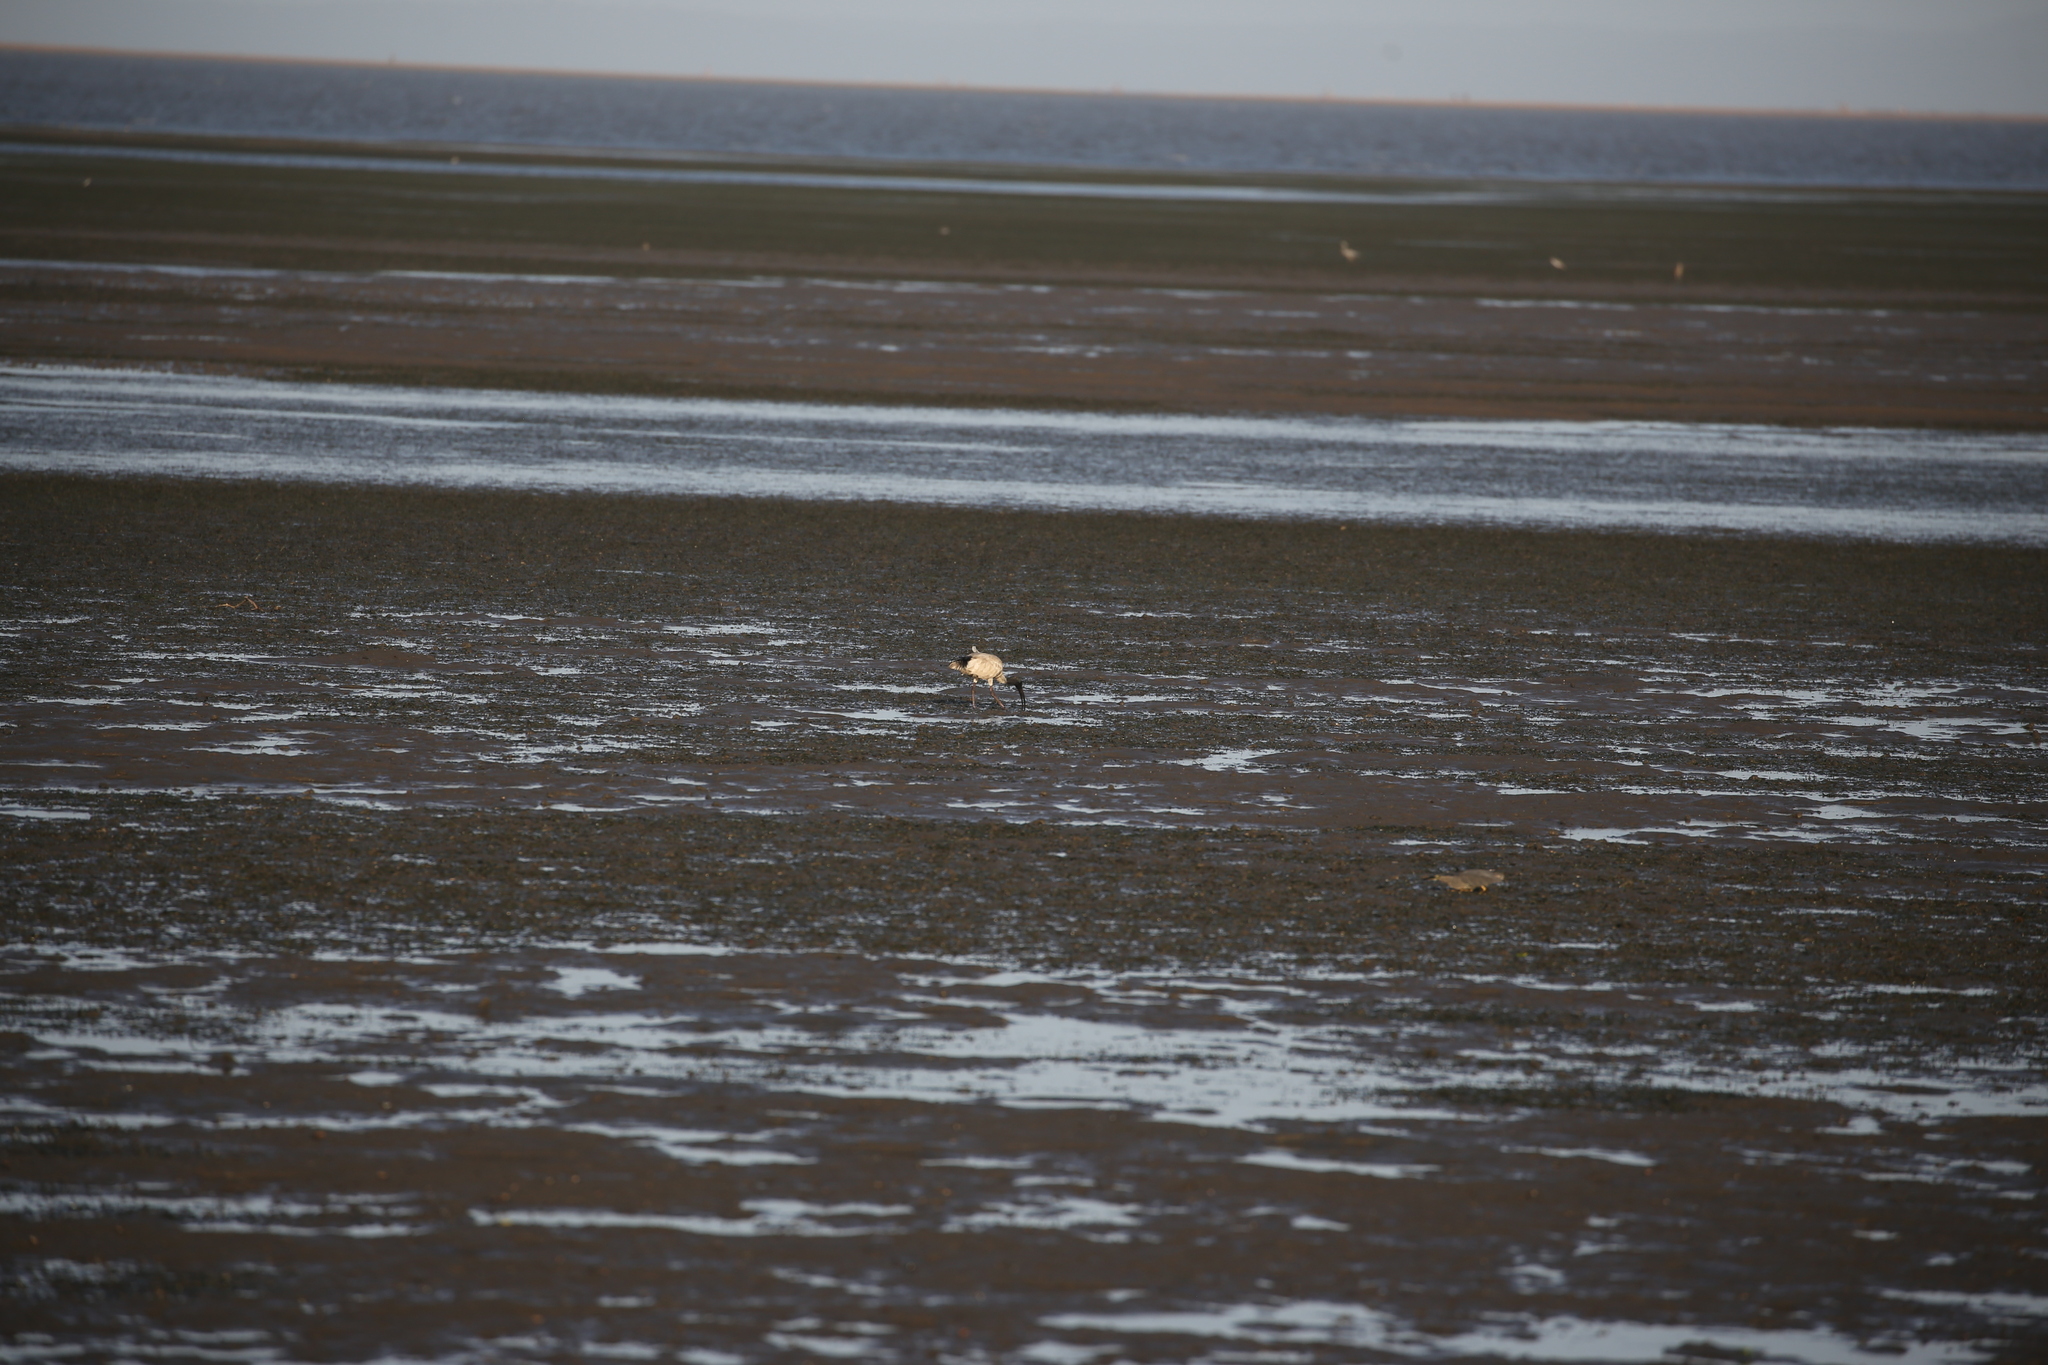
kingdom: Animalia
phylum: Chordata
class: Aves
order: Pelecaniformes
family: Threskiornithidae
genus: Threskiornis
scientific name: Threskiornis molucca
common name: Australian white ibis
